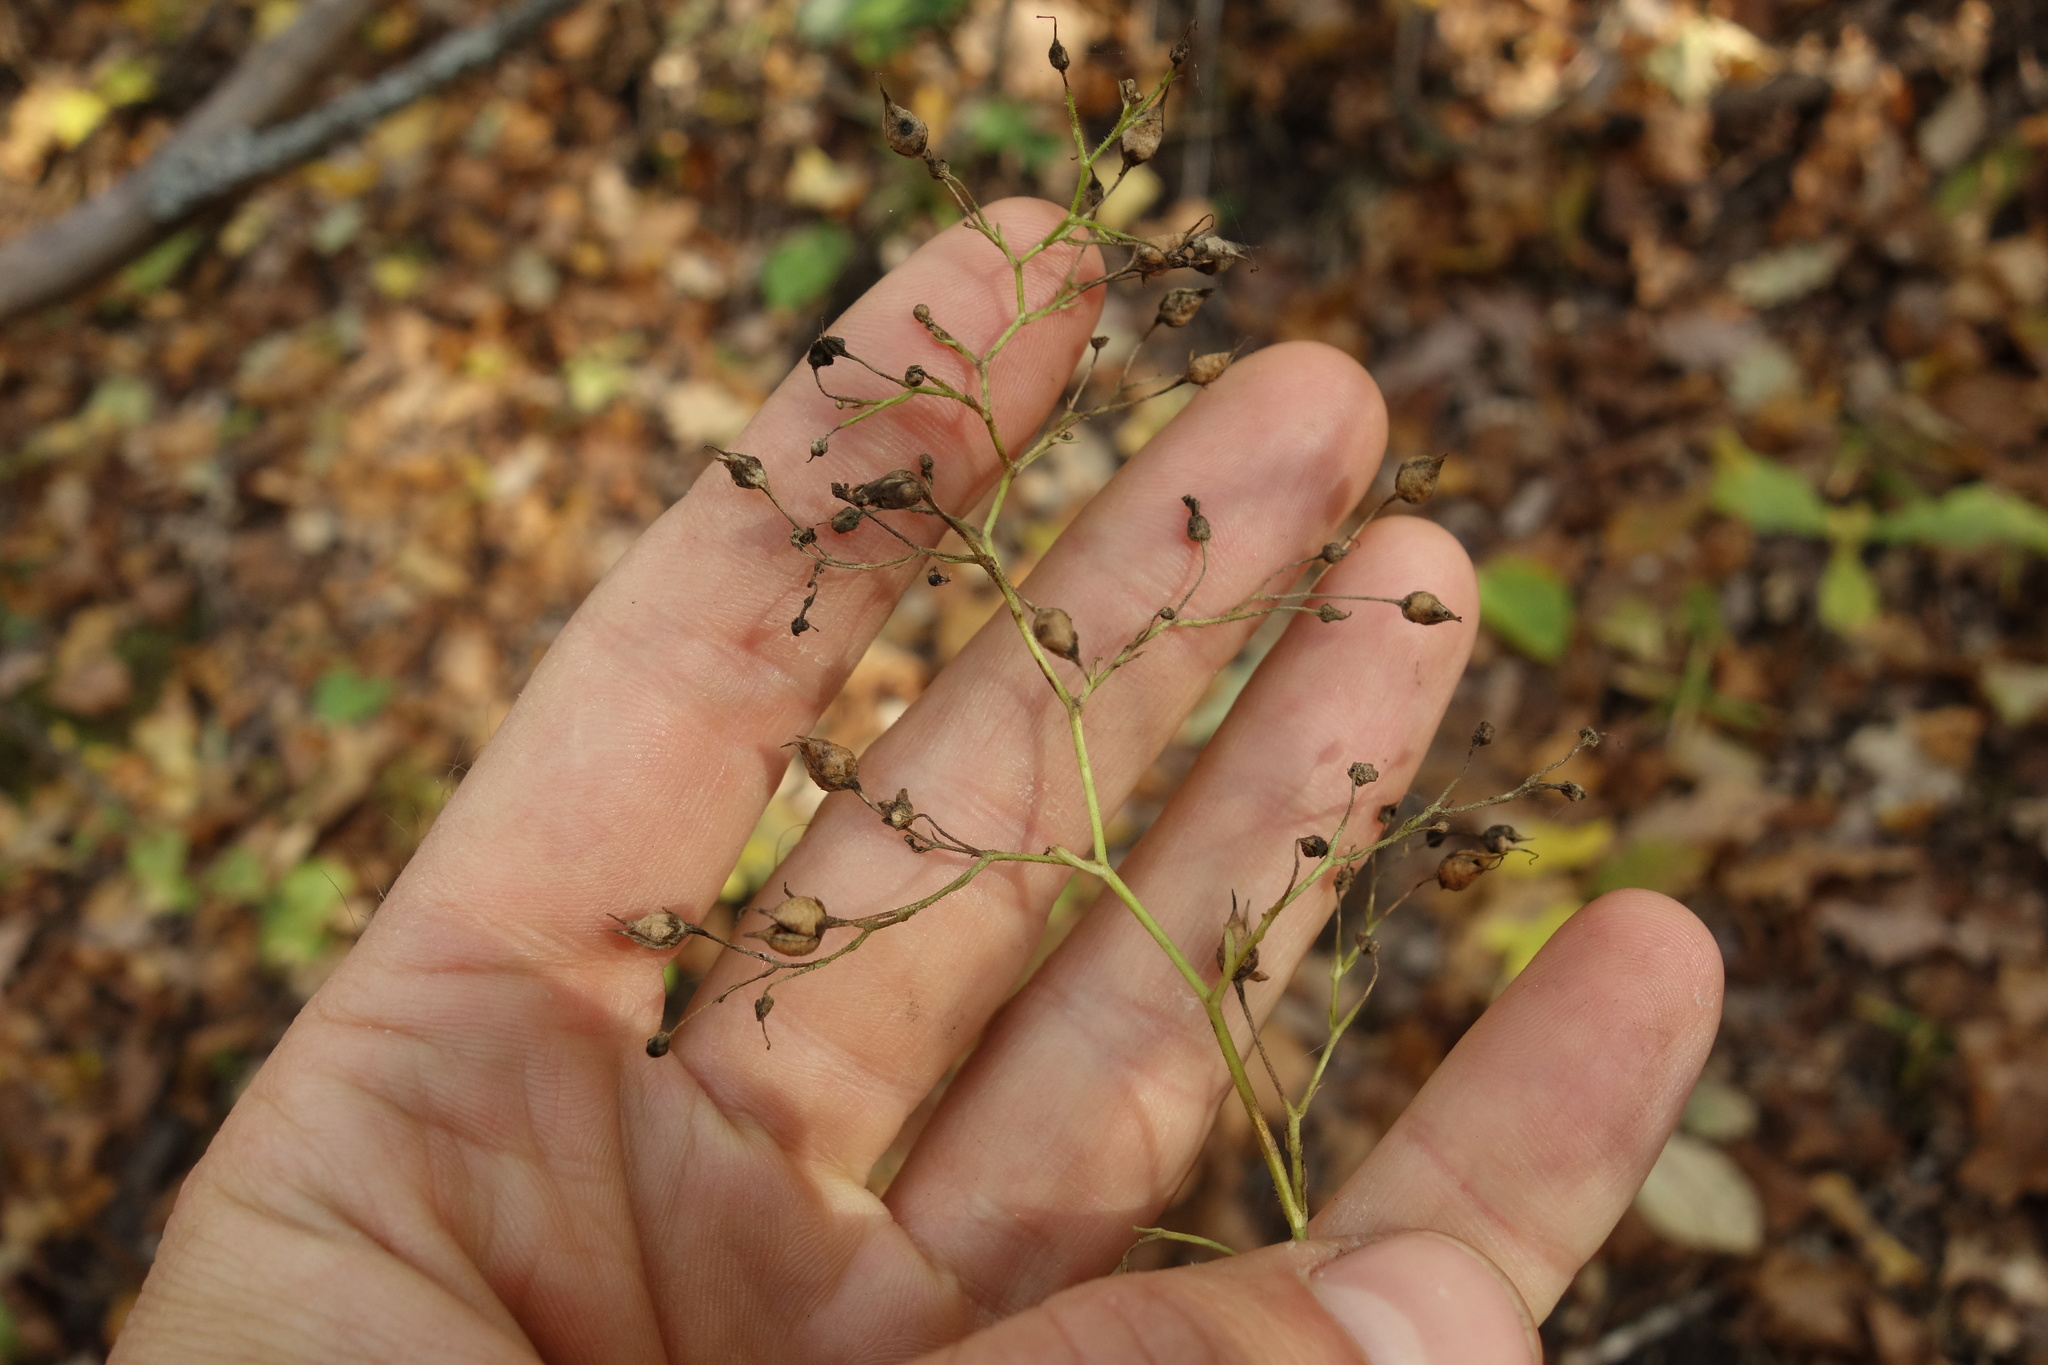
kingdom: Plantae
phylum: Tracheophyta
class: Magnoliopsida
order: Lamiales
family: Scrophulariaceae
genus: Scrophularia
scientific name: Scrophularia nodosa
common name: Common figwort
